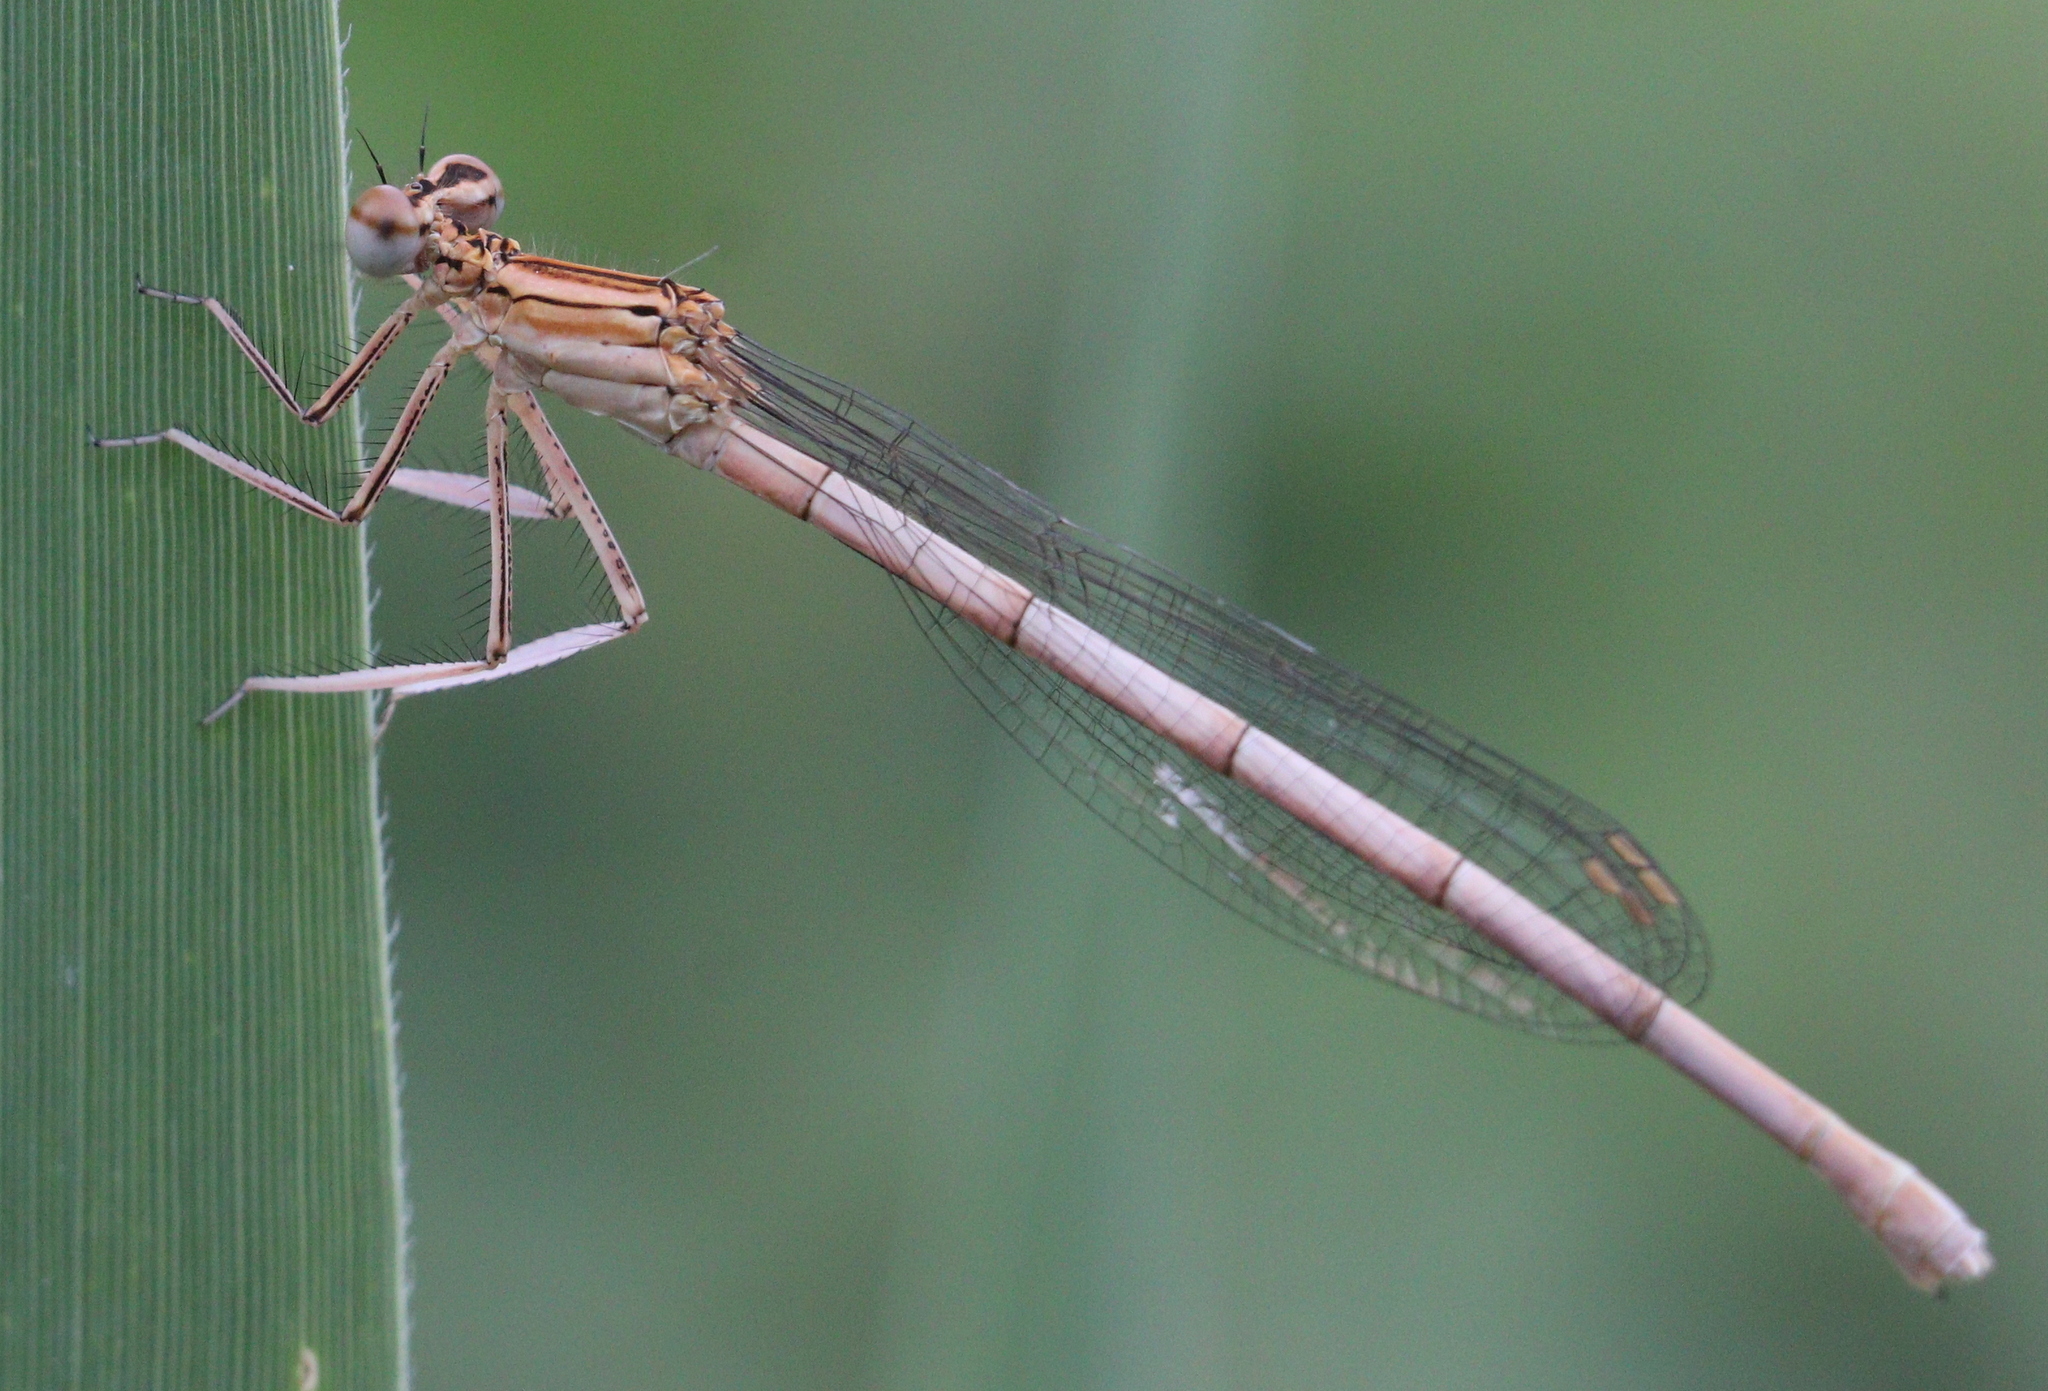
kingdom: Animalia
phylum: Arthropoda
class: Insecta
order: Odonata
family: Platycnemididae
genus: Platycnemis
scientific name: Platycnemis pennipes
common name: White-legged damselfly
